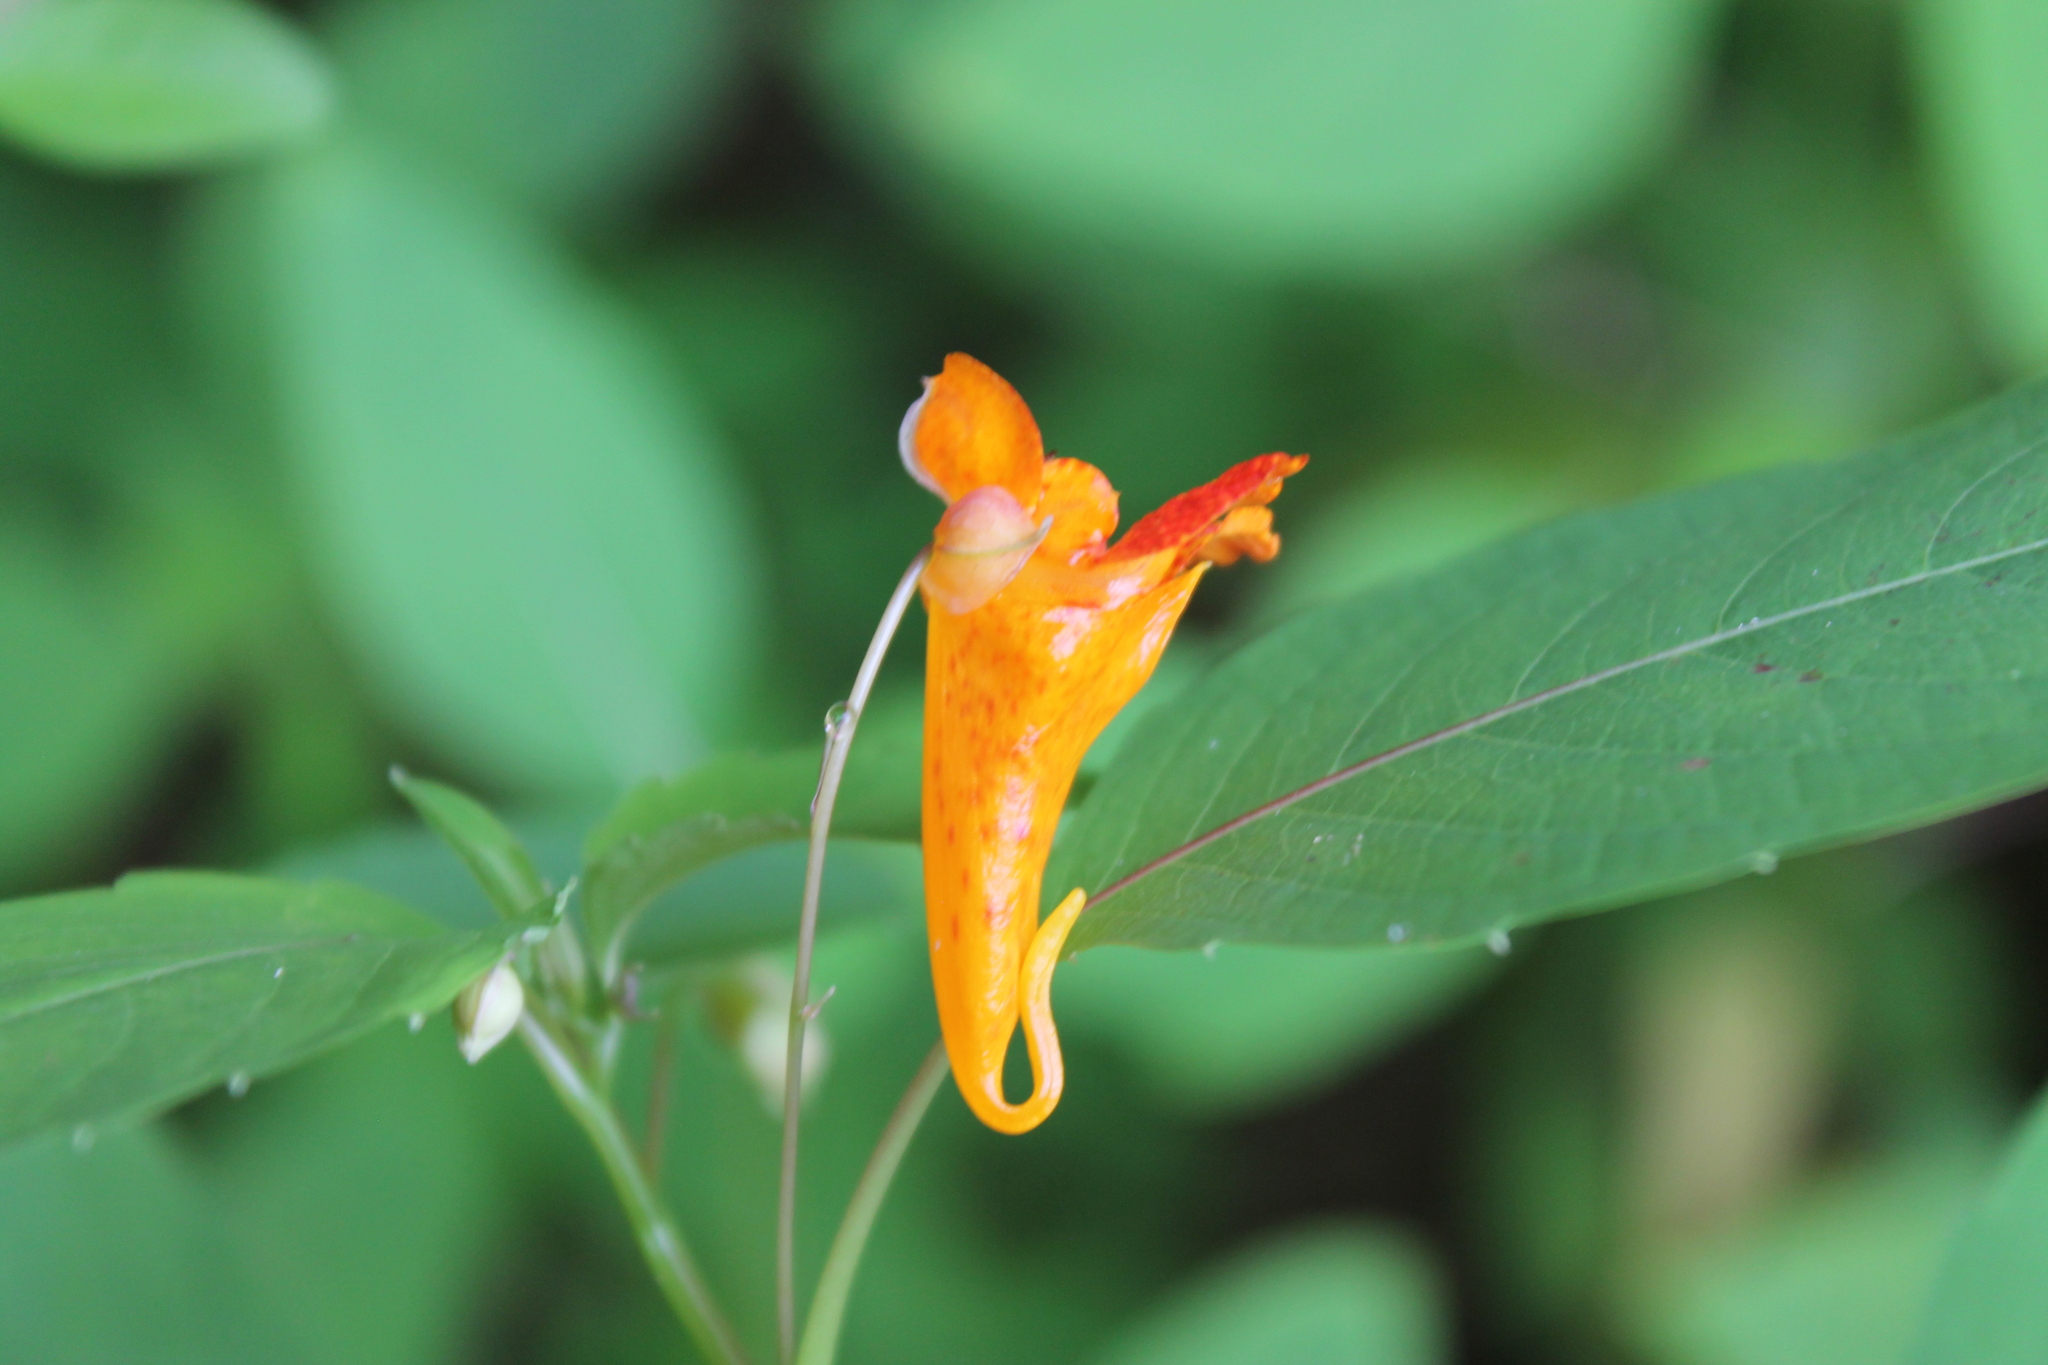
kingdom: Plantae
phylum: Tracheophyta
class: Magnoliopsida
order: Ericales
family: Balsaminaceae
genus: Impatiens
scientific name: Impatiens capensis
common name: Orange balsam
